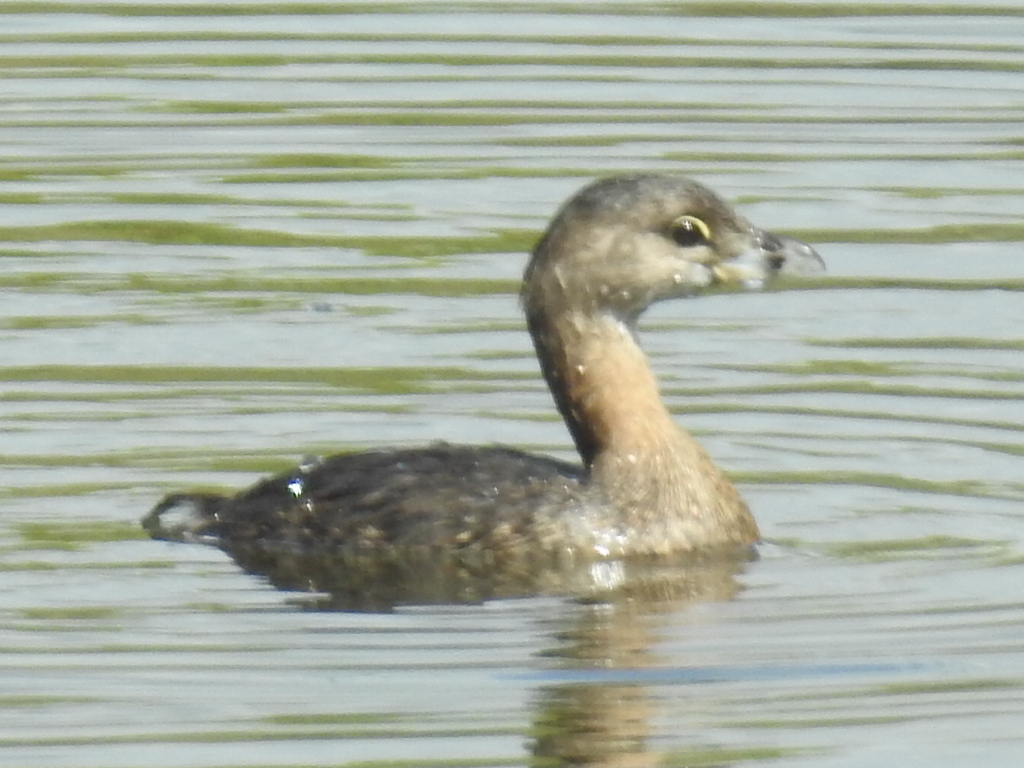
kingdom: Animalia
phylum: Chordata
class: Aves
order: Podicipediformes
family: Podicipedidae
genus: Podilymbus
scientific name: Podilymbus podiceps
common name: Pied-billed grebe
